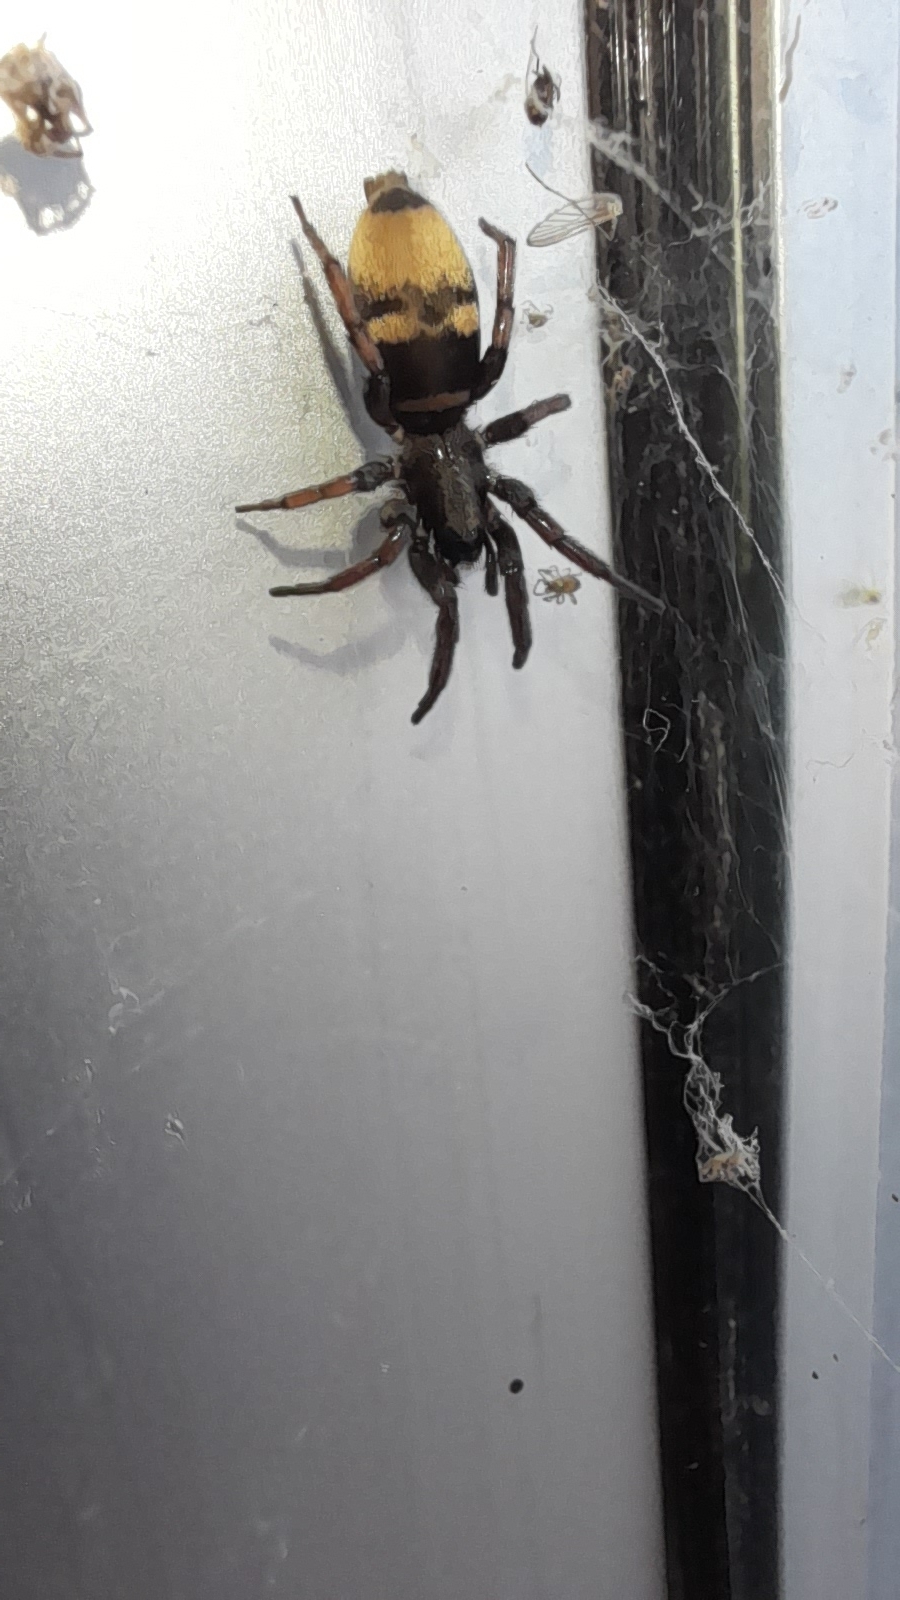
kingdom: Animalia
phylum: Arthropoda
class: Arachnida
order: Araneae
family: Gnaphosidae
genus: Latonigena
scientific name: Latonigena auricomis
